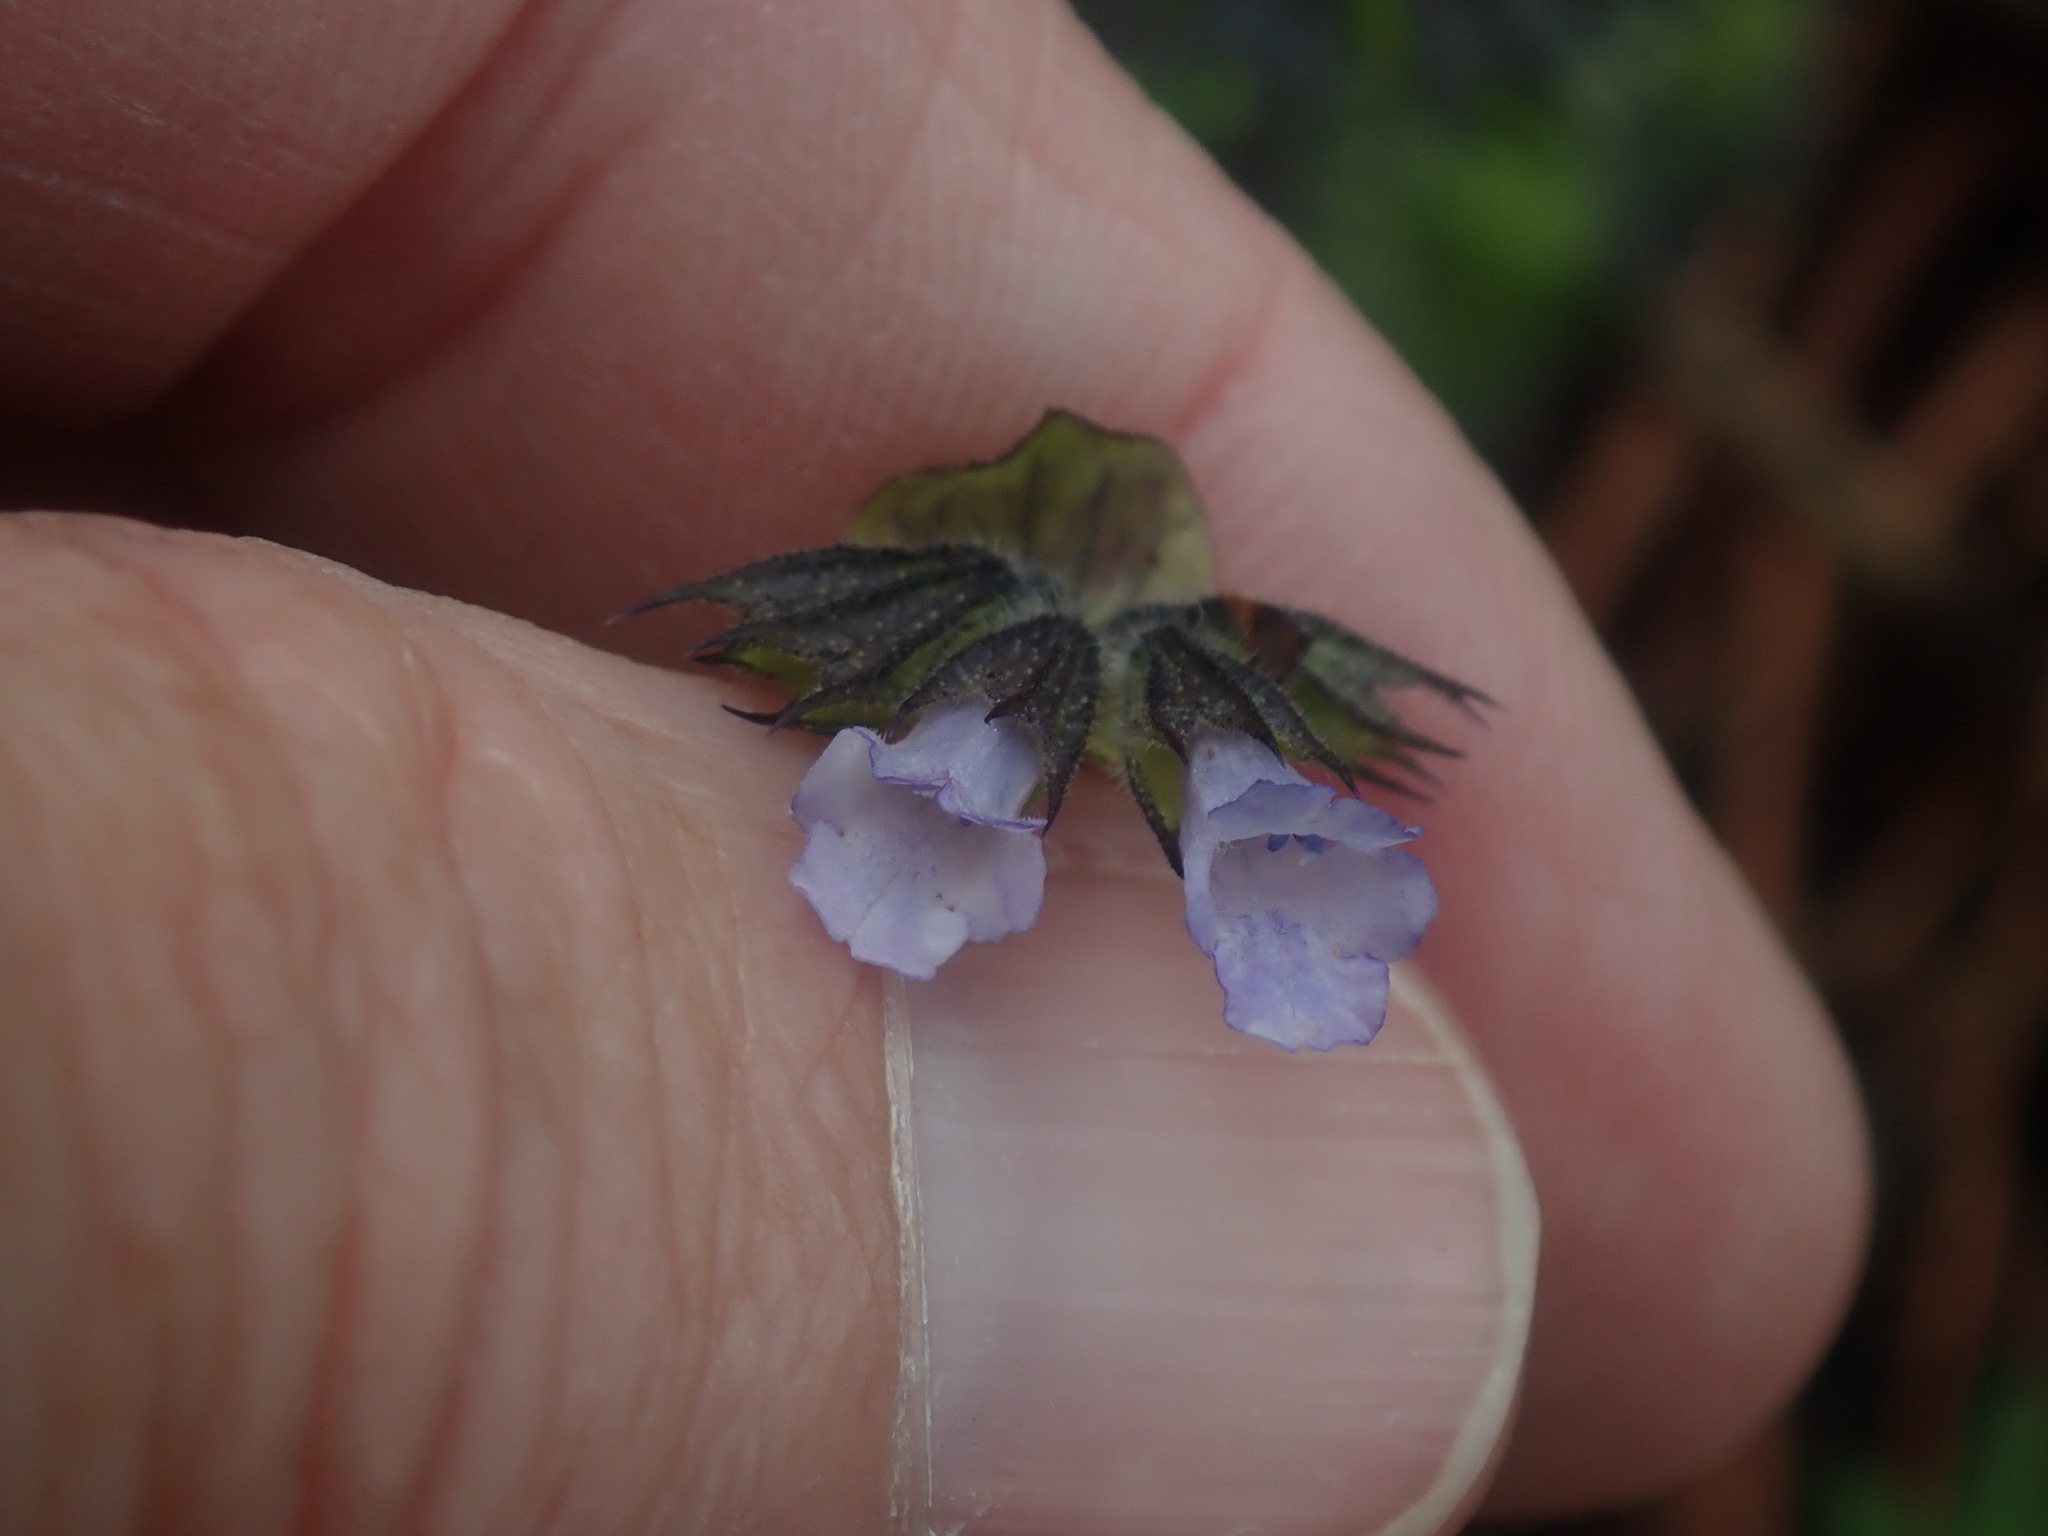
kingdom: Plantae
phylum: Tracheophyta
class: Magnoliopsida
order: Lamiales
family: Lamiaceae
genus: Lepechinia
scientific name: Lepechinia schiedeana
